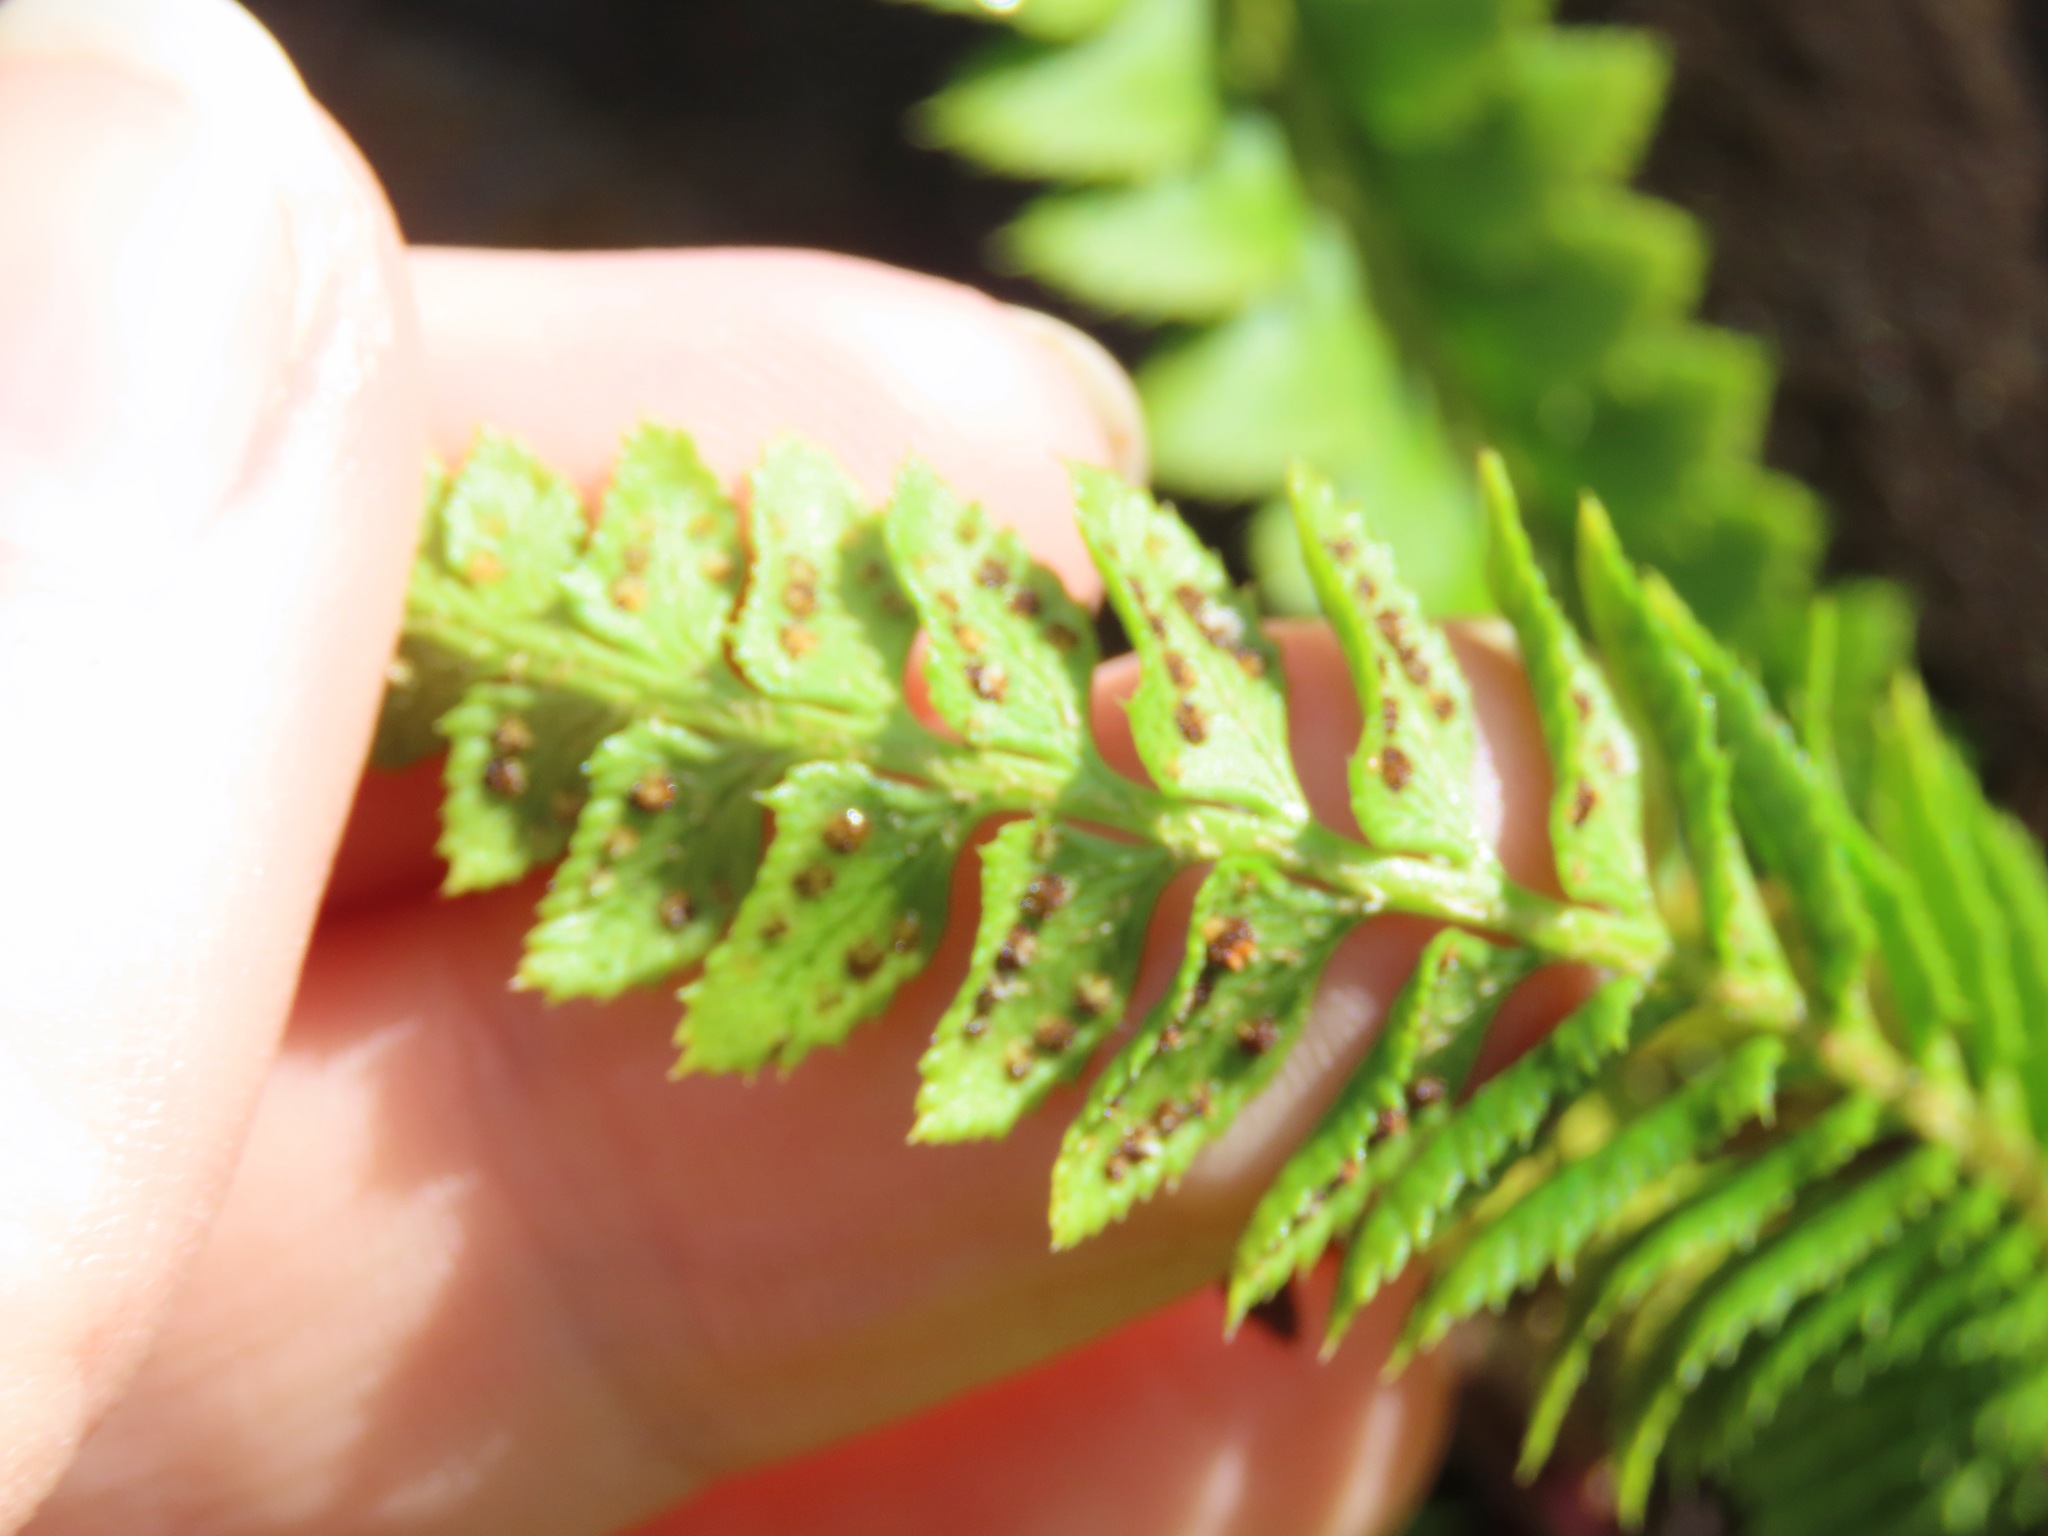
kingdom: Plantae
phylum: Tracheophyta
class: Polypodiopsida
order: Polypodiales
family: Dryopteridaceae
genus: Polystichum
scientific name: Polystichum lonchitis
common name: Holly fern
